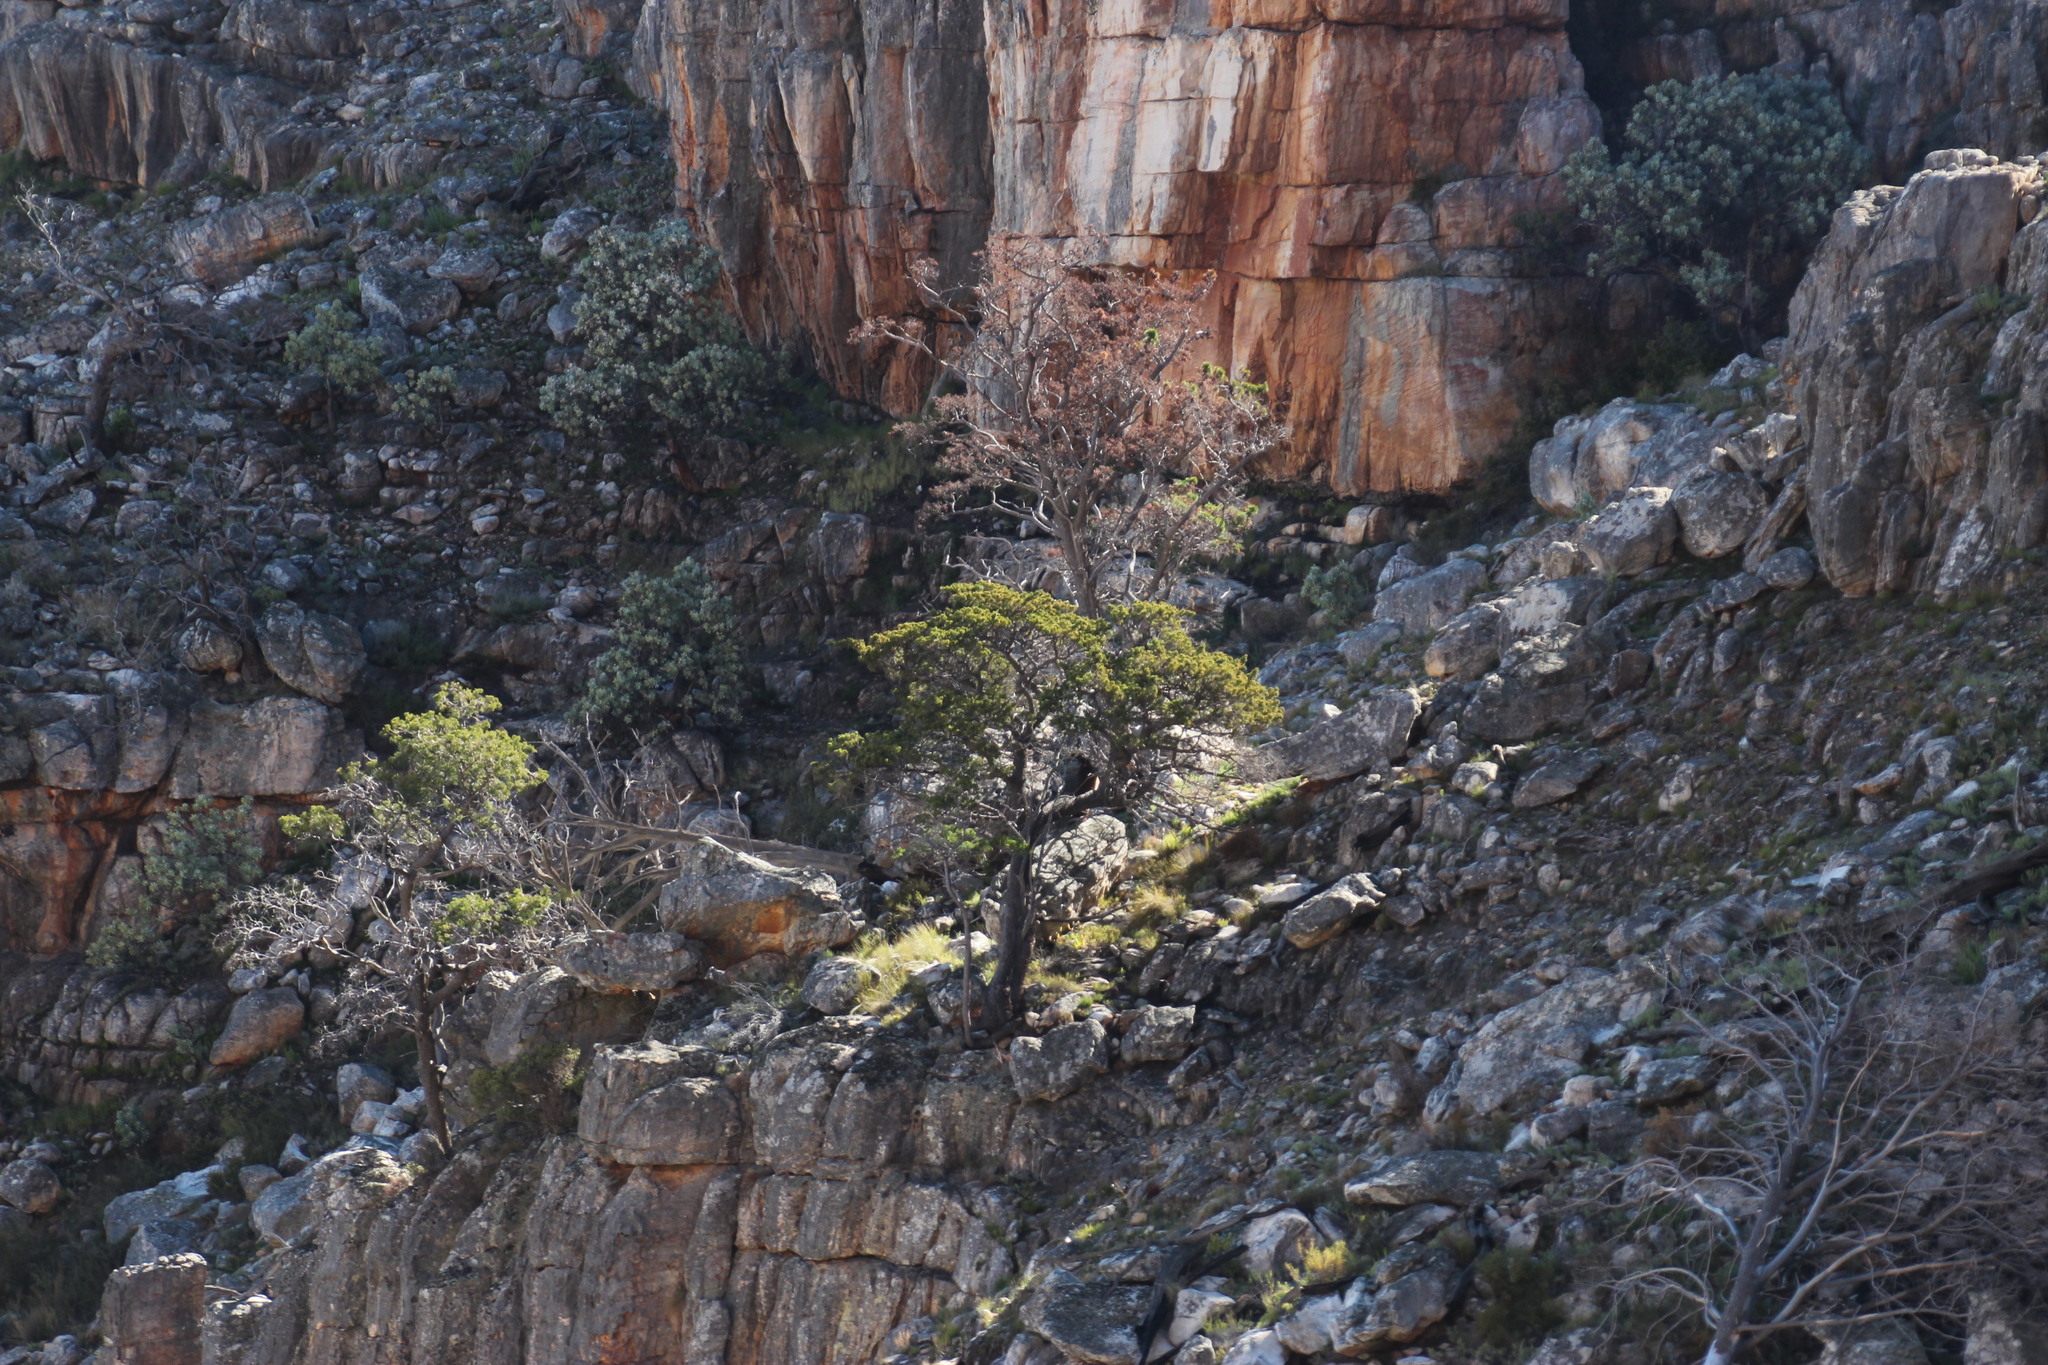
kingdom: Plantae
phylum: Tracheophyta
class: Pinopsida
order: Pinales
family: Cupressaceae
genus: Widdringtonia
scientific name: Widdringtonia nodiflora
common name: Cape cypress
